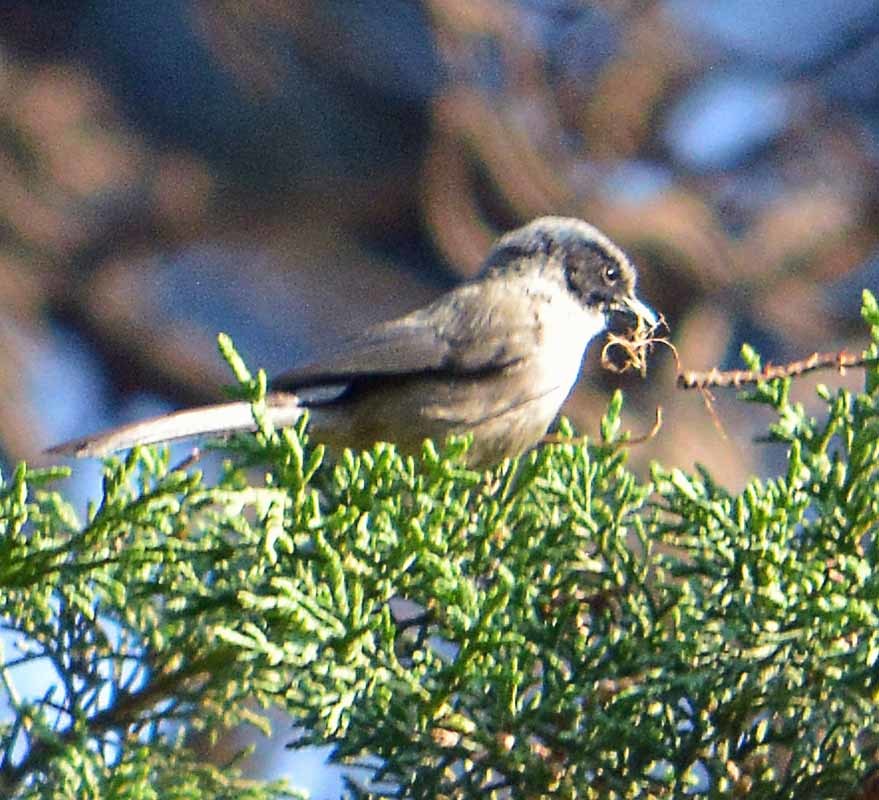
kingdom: Animalia
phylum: Chordata
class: Aves
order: Passeriformes
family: Aegithalidae
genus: Psaltriparus
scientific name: Psaltriparus minimus
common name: American bushtit
